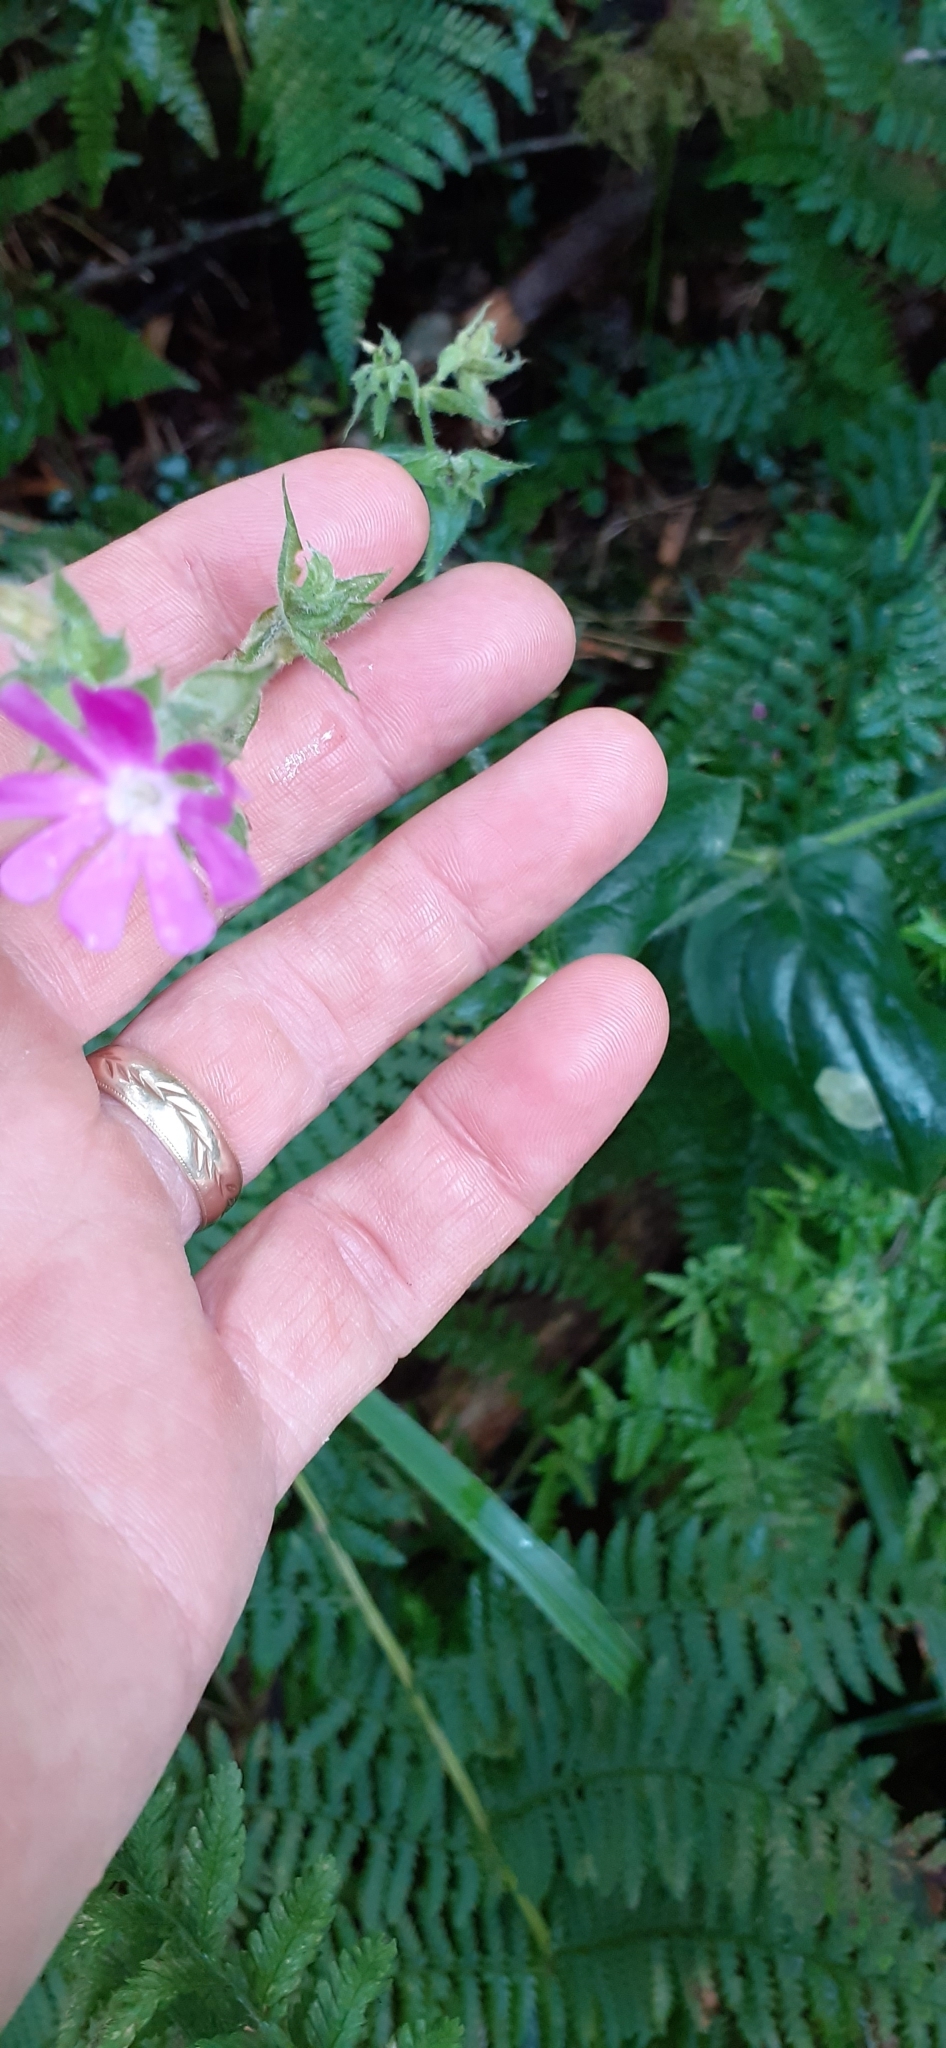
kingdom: Plantae
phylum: Tracheophyta
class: Magnoliopsida
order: Caryophyllales
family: Caryophyllaceae
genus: Silene
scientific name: Silene dioica
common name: Red campion
